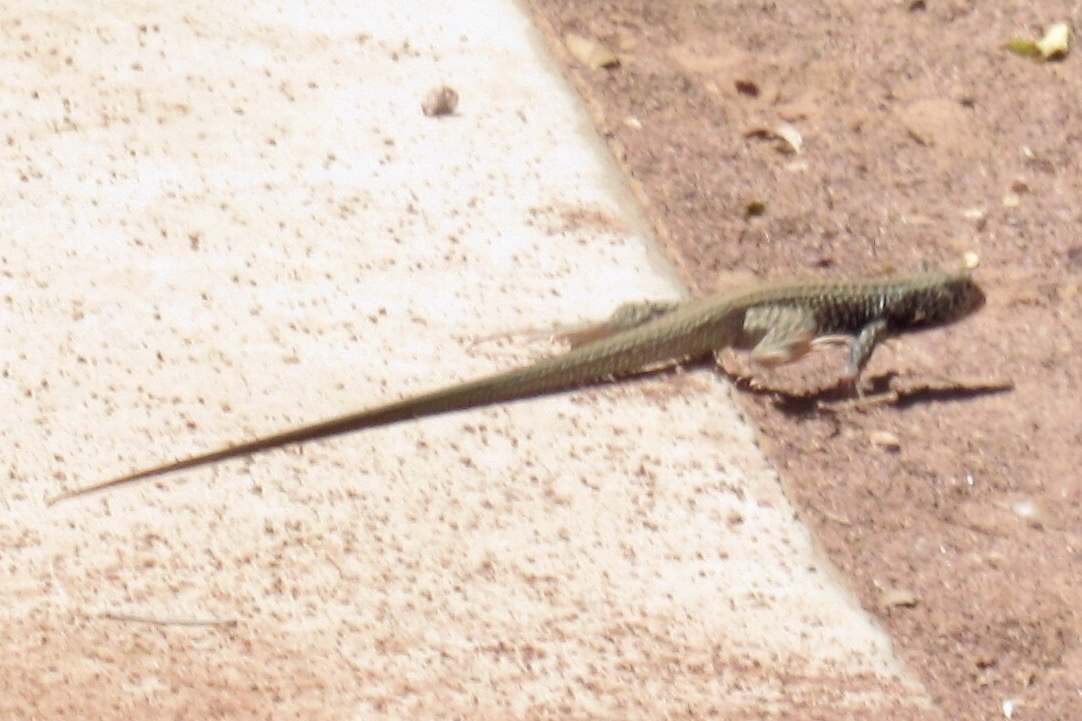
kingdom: Animalia
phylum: Chordata
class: Squamata
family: Teiidae
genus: Aspidoscelis
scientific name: Aspidoscelis tigris
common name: Tiger whiptail
